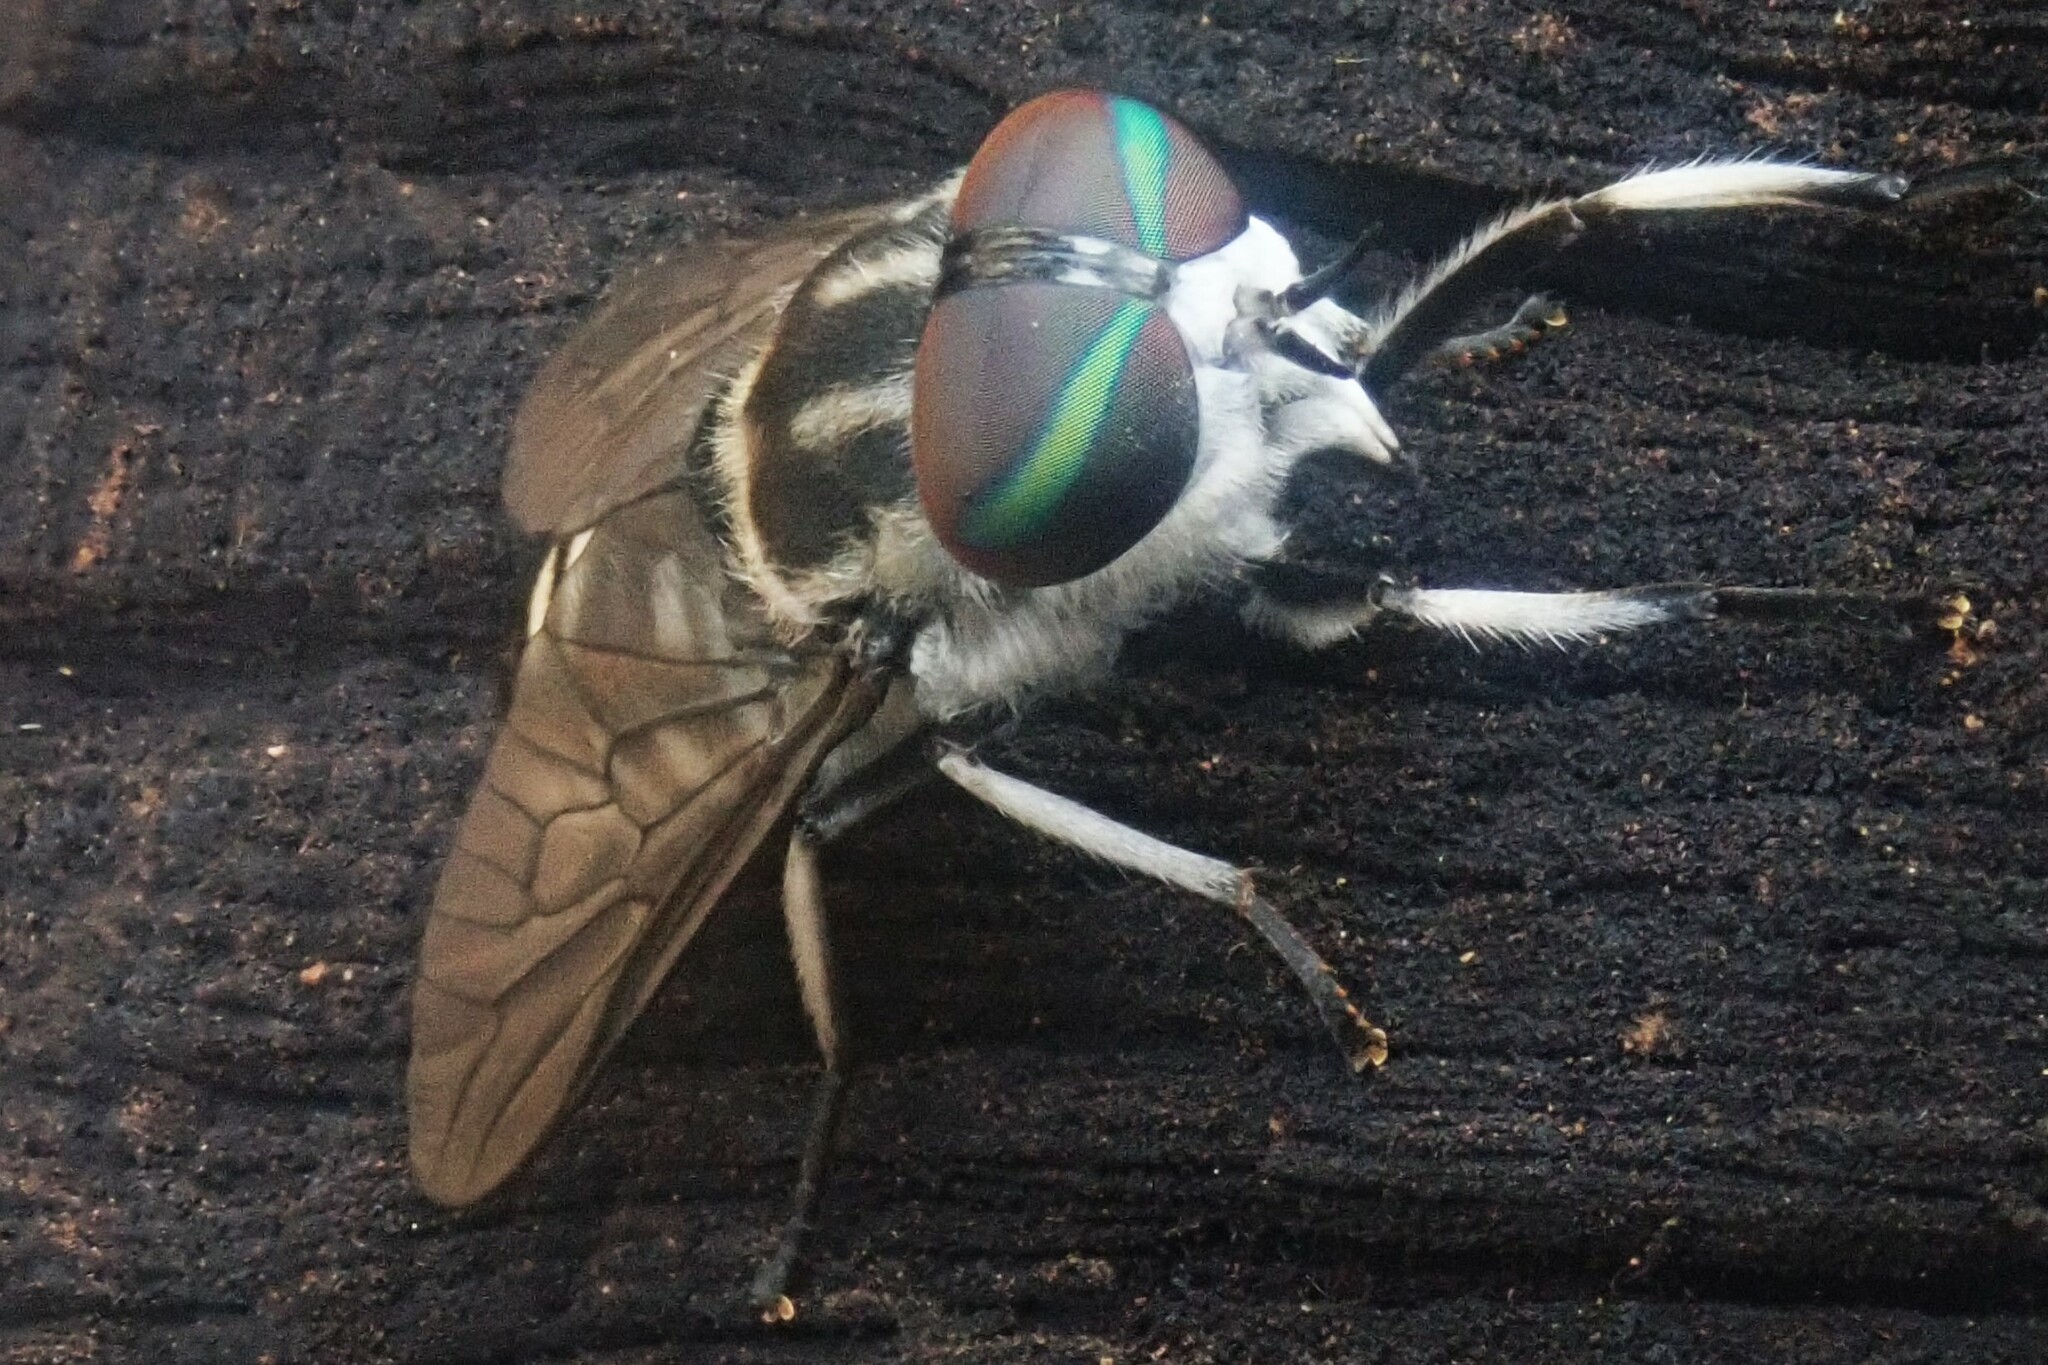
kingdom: Animalia
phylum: Arthropoda
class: Insecta
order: Diptera
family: Tabanidae
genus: Tabanus
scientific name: Tabanus insignis
